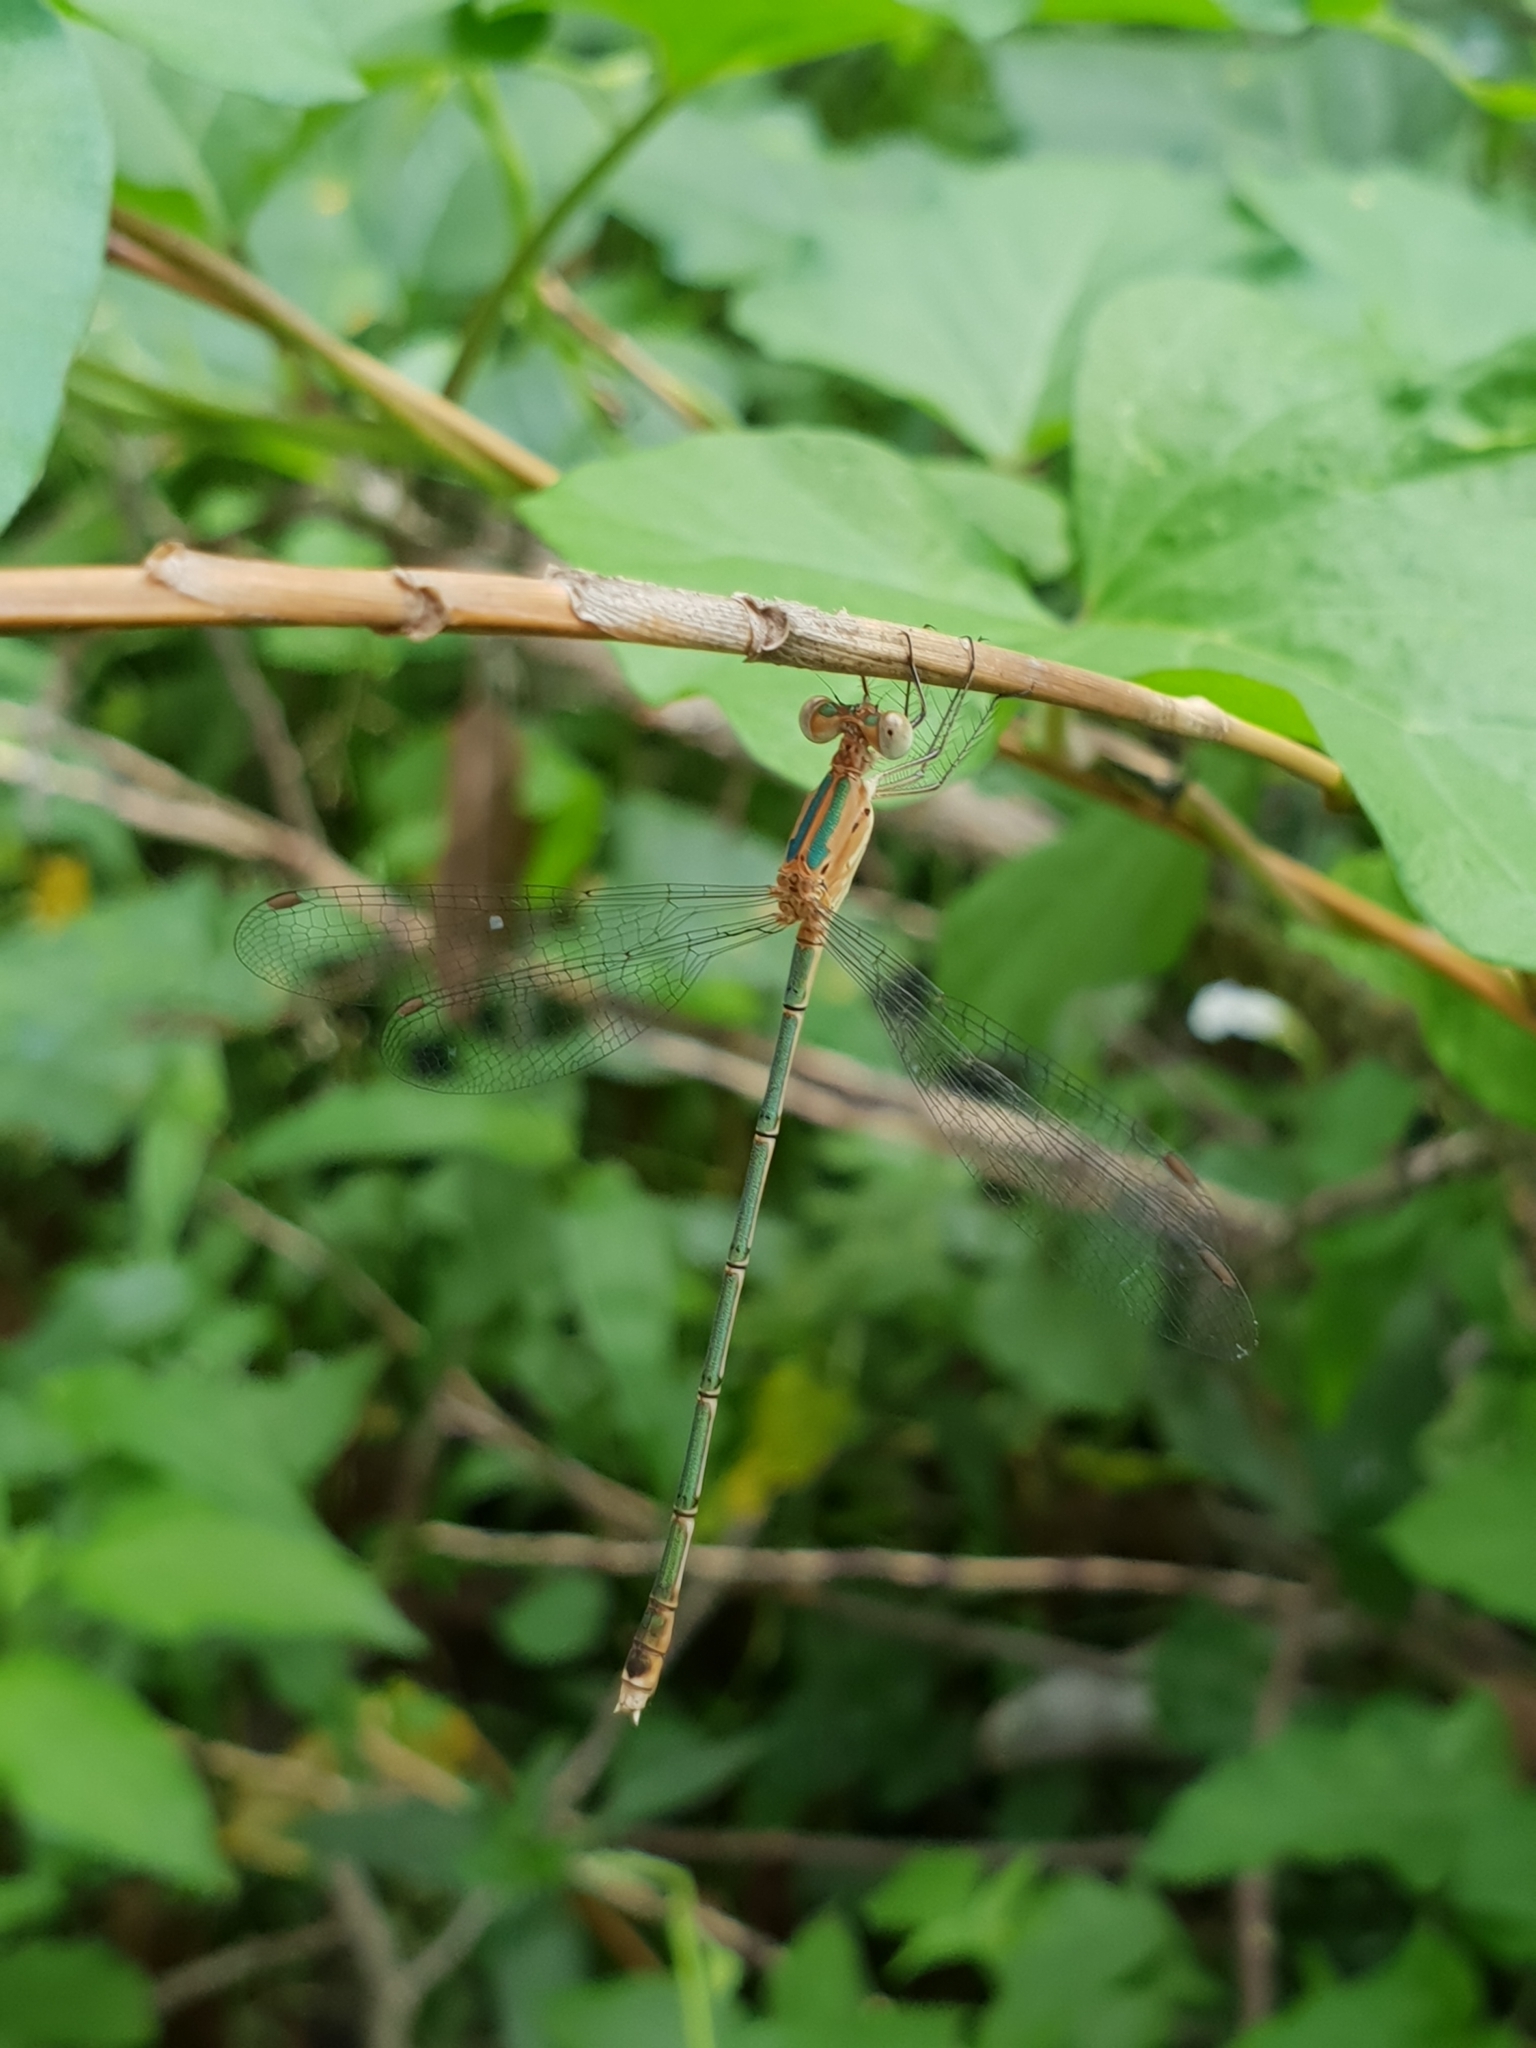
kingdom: Animalia
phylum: Arthropoda
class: Insecta
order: Odonata
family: Lestidae
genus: Lestes
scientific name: Lestes elatus
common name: Emerald spreadwing
